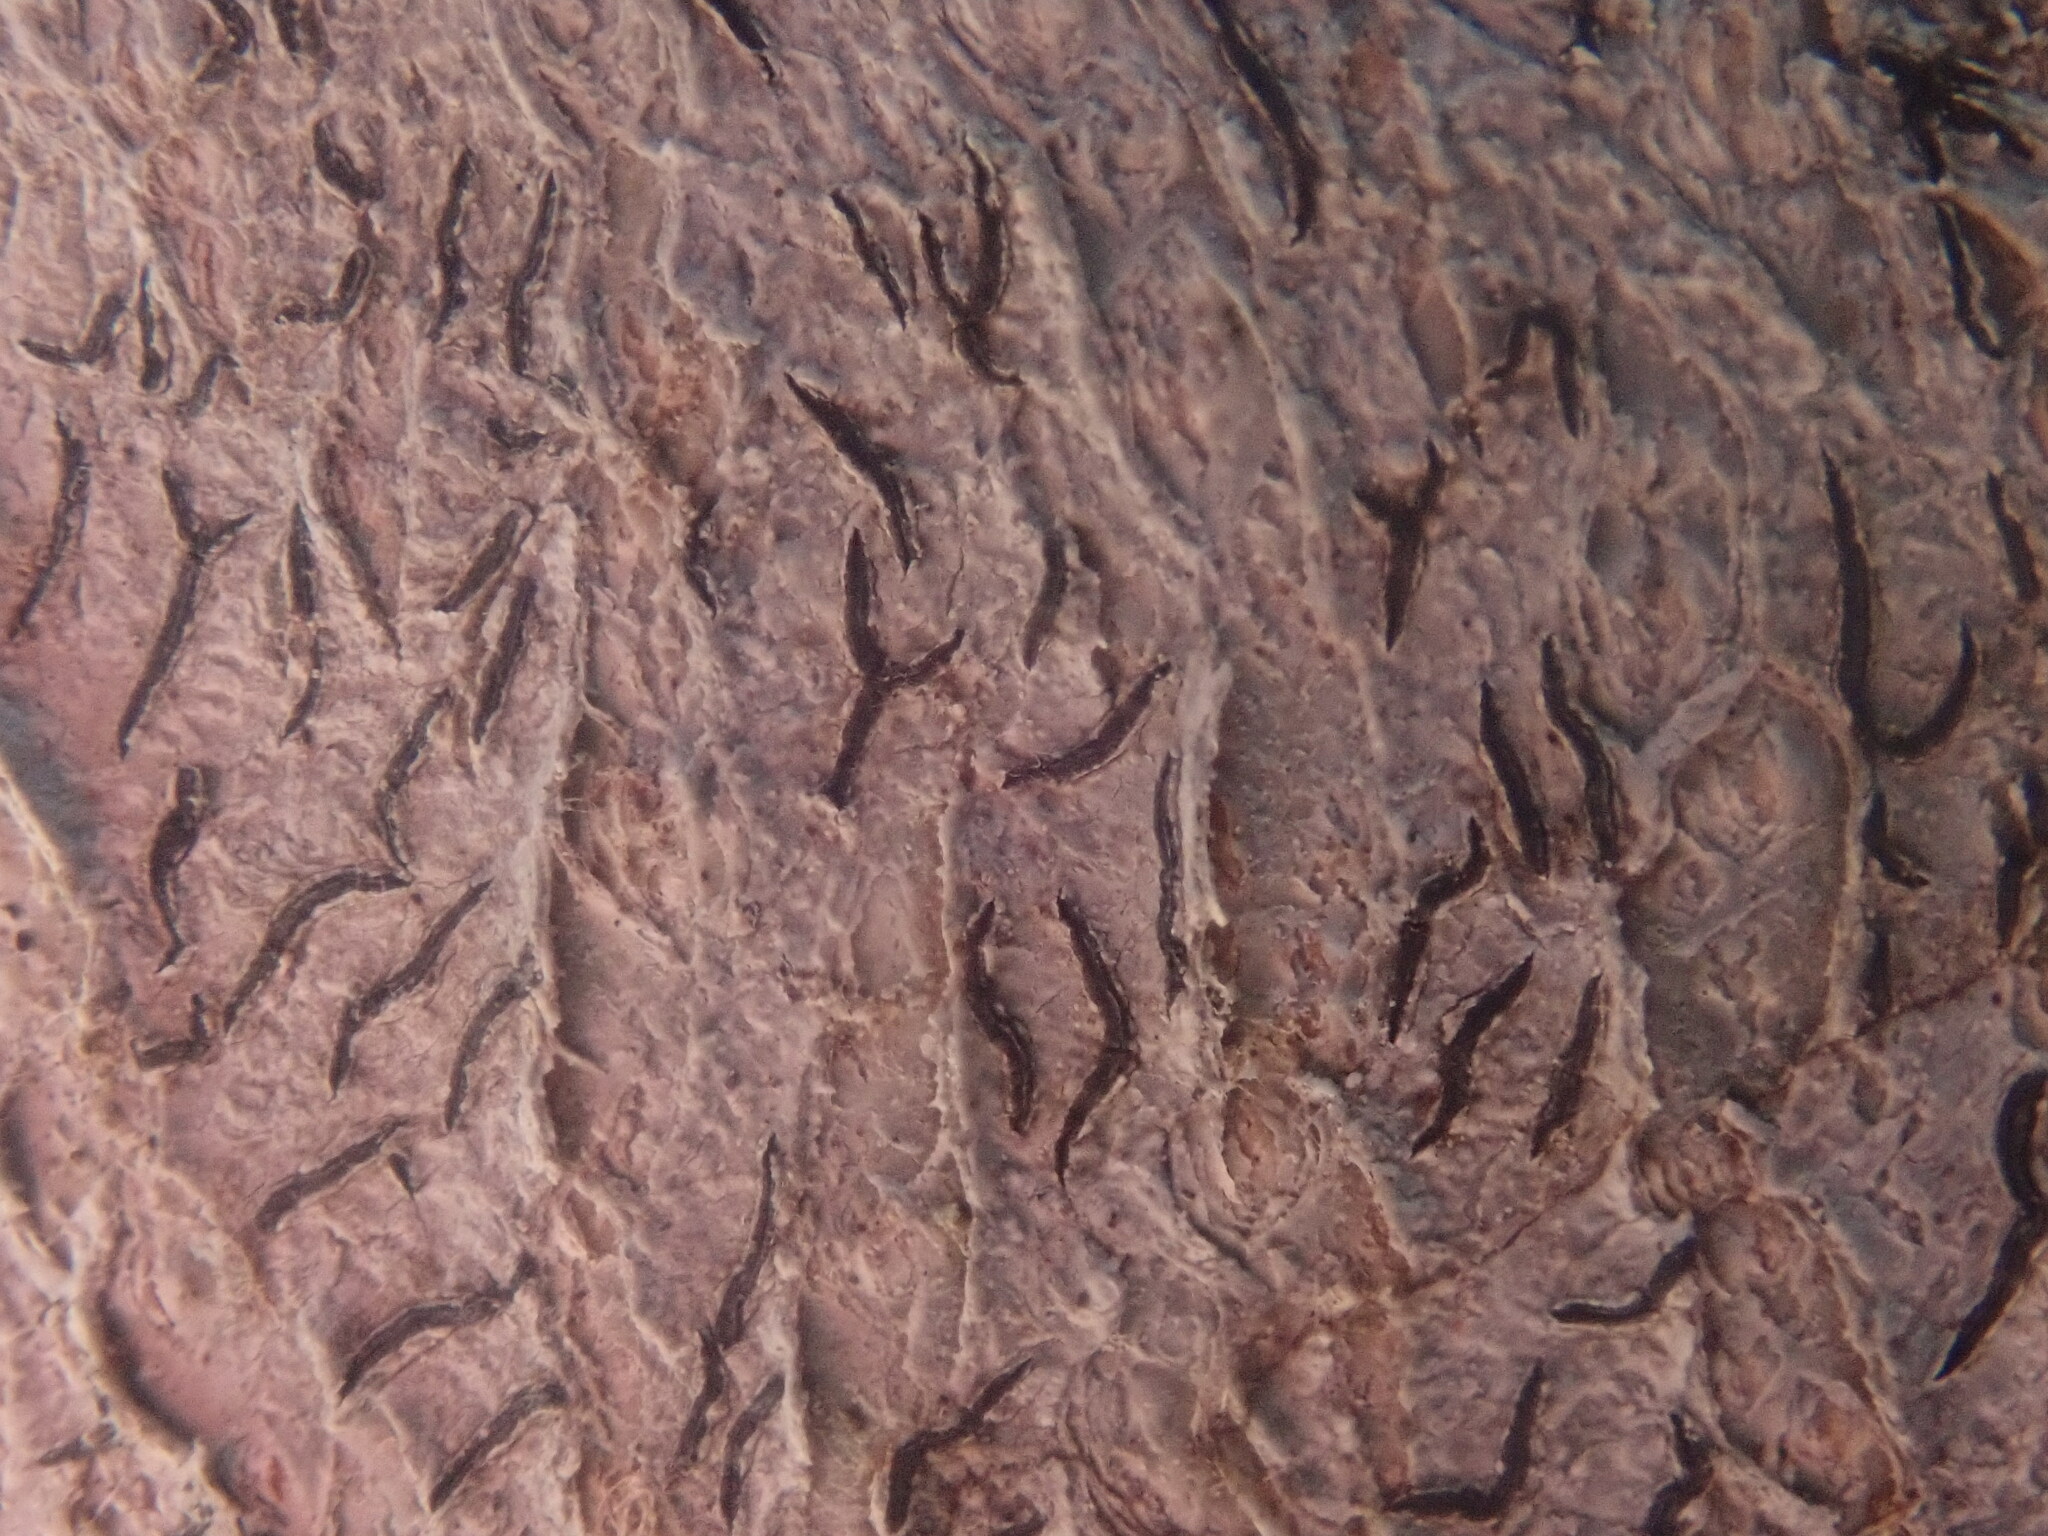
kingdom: Fungi
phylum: Ascomycota
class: Lecanoromycetes
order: Ostropales
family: Graphidaceae
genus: Graphis
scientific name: Graphis scripta
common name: Script lichen
